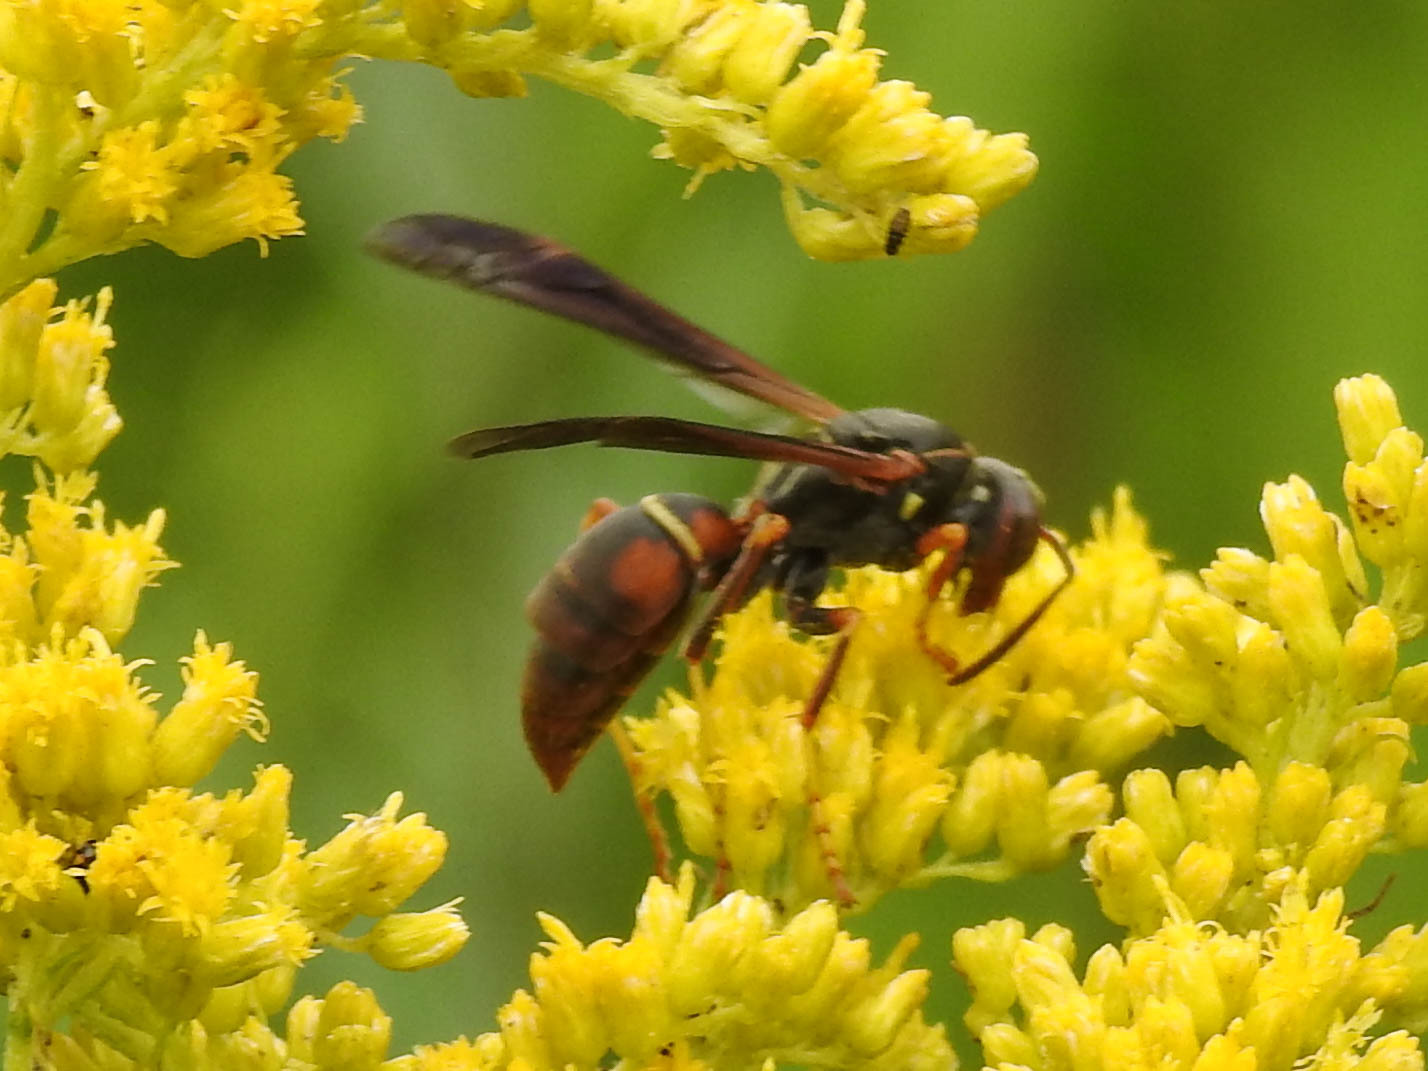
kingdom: Animalia
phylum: Arthropoda
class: Insecta
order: Hymenoptera
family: Eumenidae
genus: Polistes
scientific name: Polistes fuscatus
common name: Dark paper wasp
